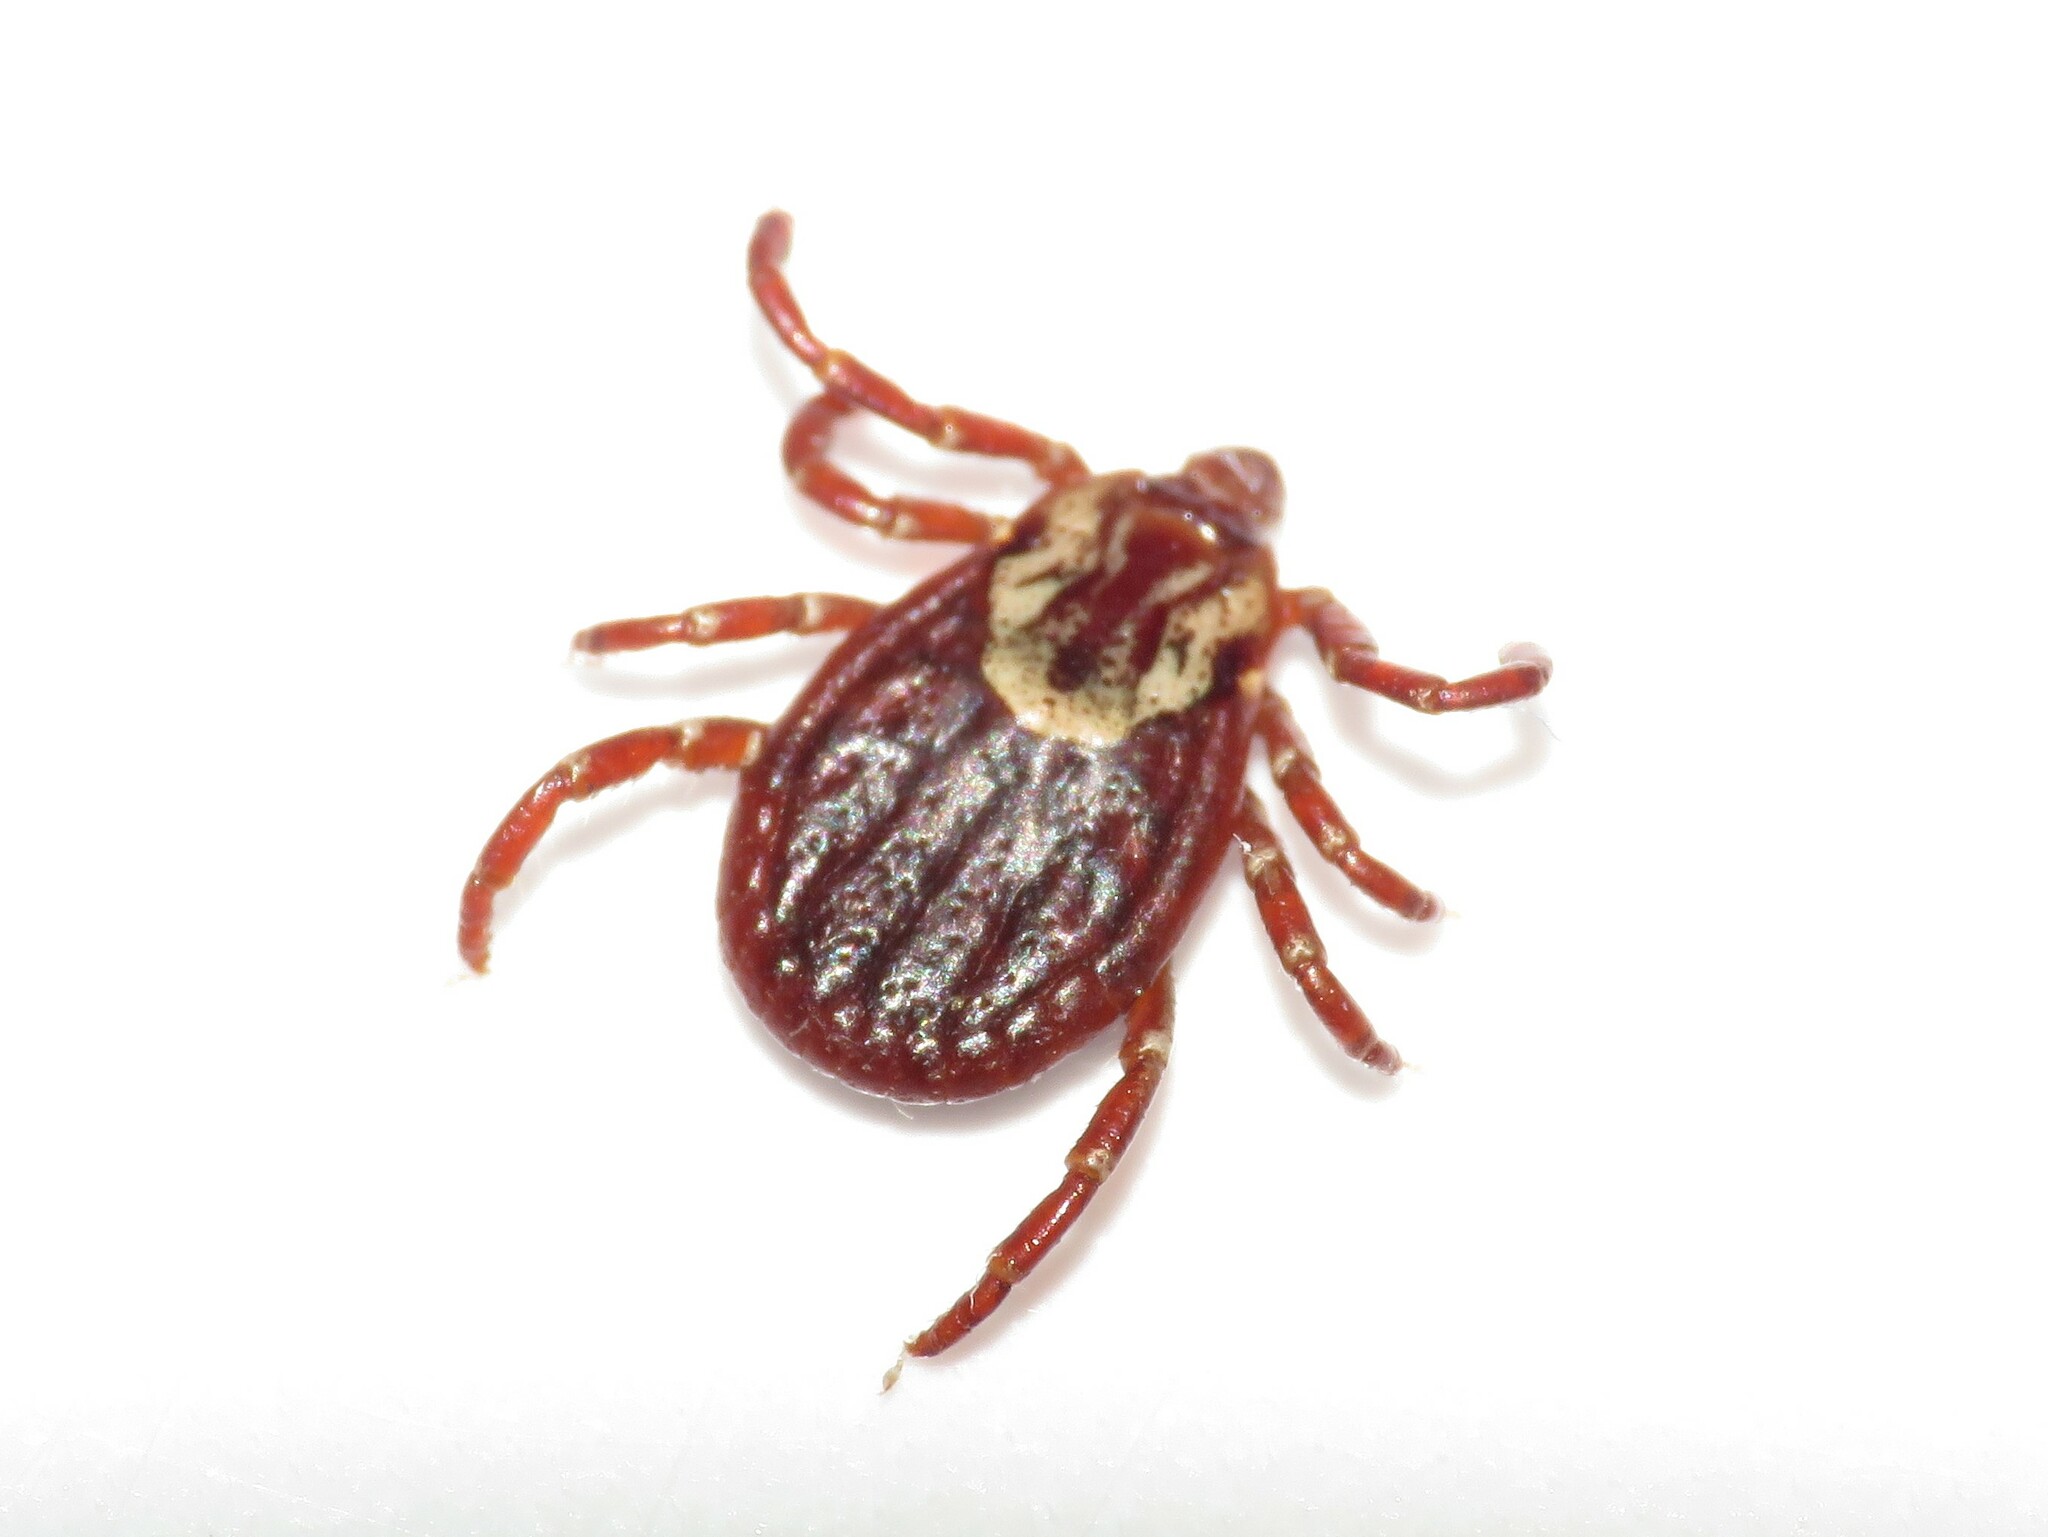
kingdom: Animalia
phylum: Arthropoda
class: Arachnida
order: Ixodida
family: Ixodidae
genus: Dermacentor
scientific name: Dermacentor variabilis
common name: American dog tick
